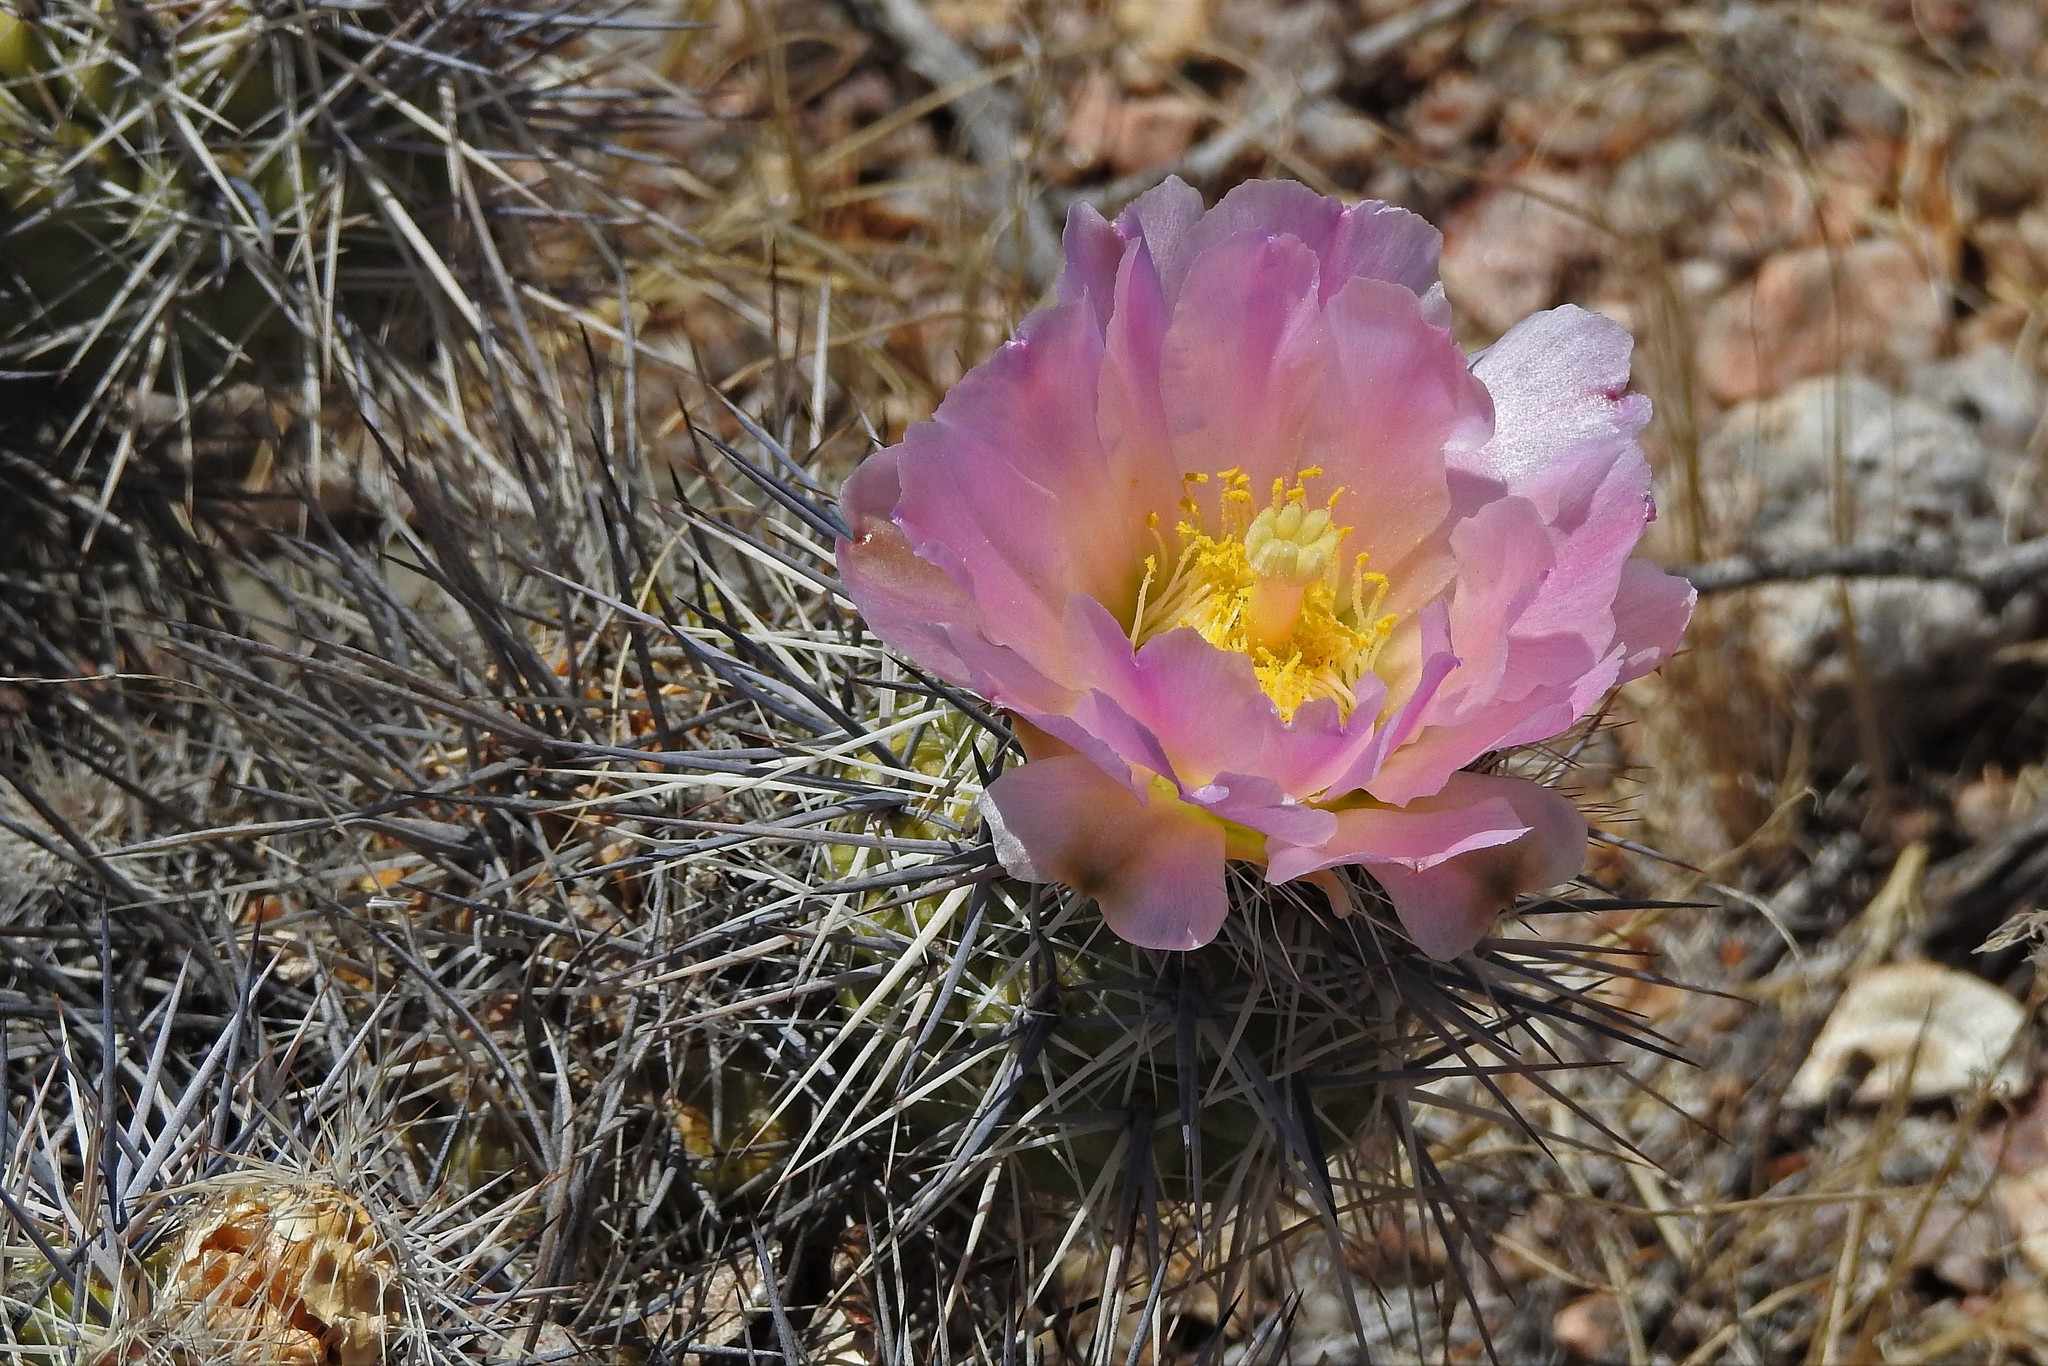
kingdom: Plantae
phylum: Tracheophyta
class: Magnoliopsida
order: Caryophyllales
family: Cactaceae
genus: Tephrocactus
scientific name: Tephrocactus alexanderi
